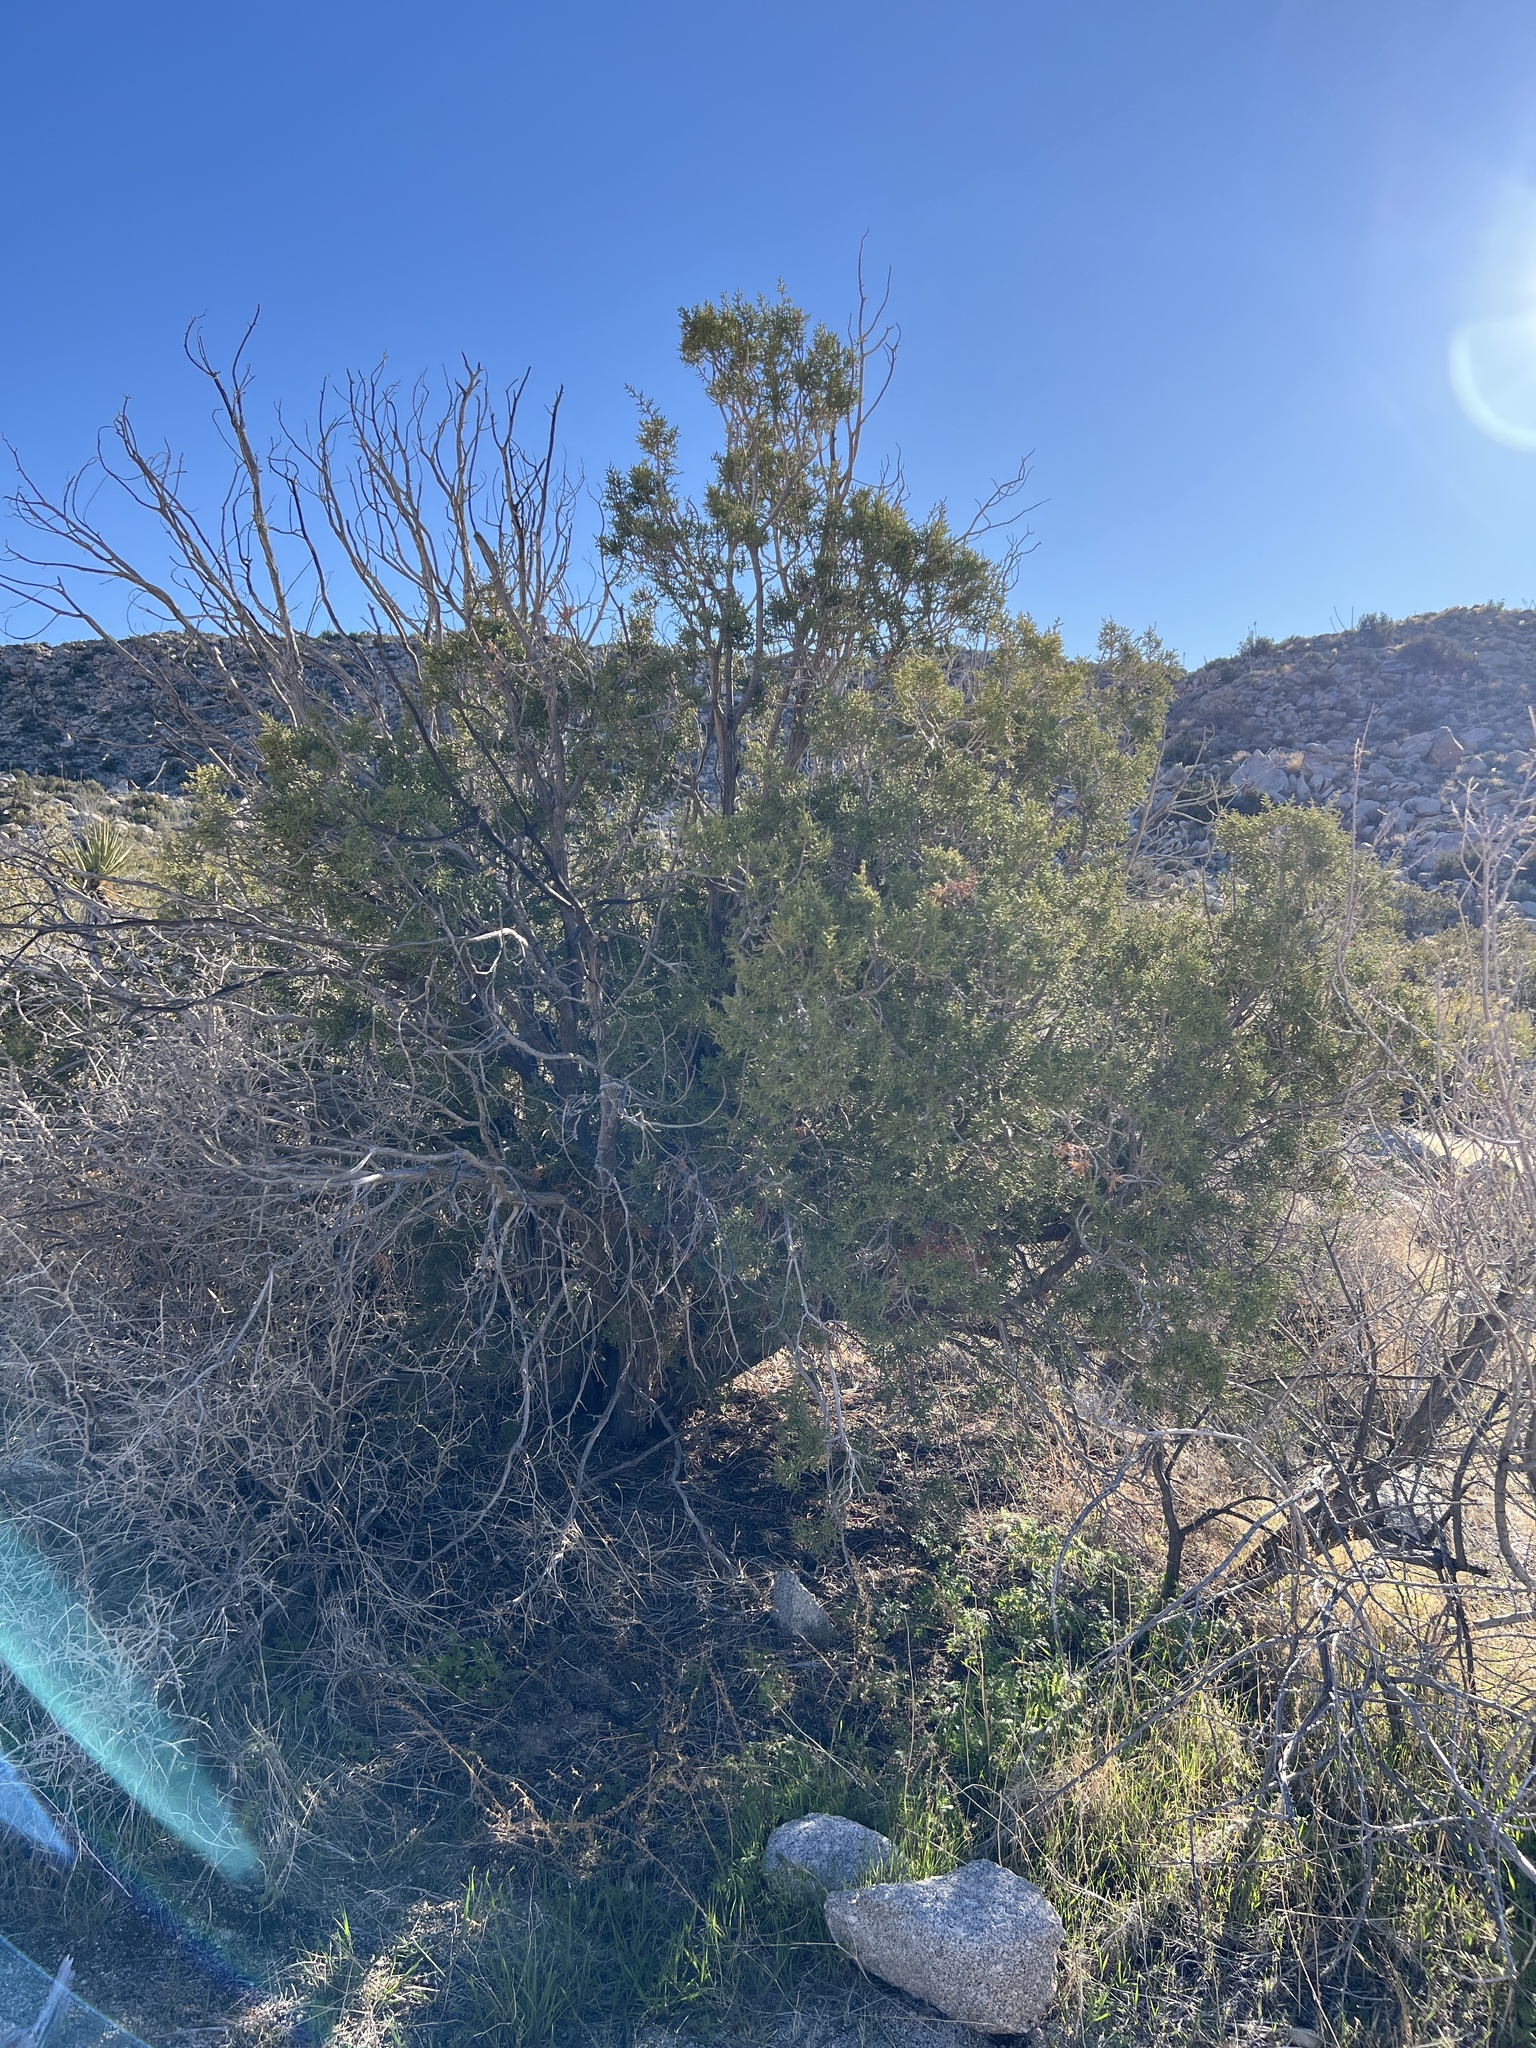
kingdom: Plantae
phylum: Tracheophyta
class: Pinopsida
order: Pinales
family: Cupressaceae
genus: Juniperus
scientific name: Juniperus californica
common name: California juniper
